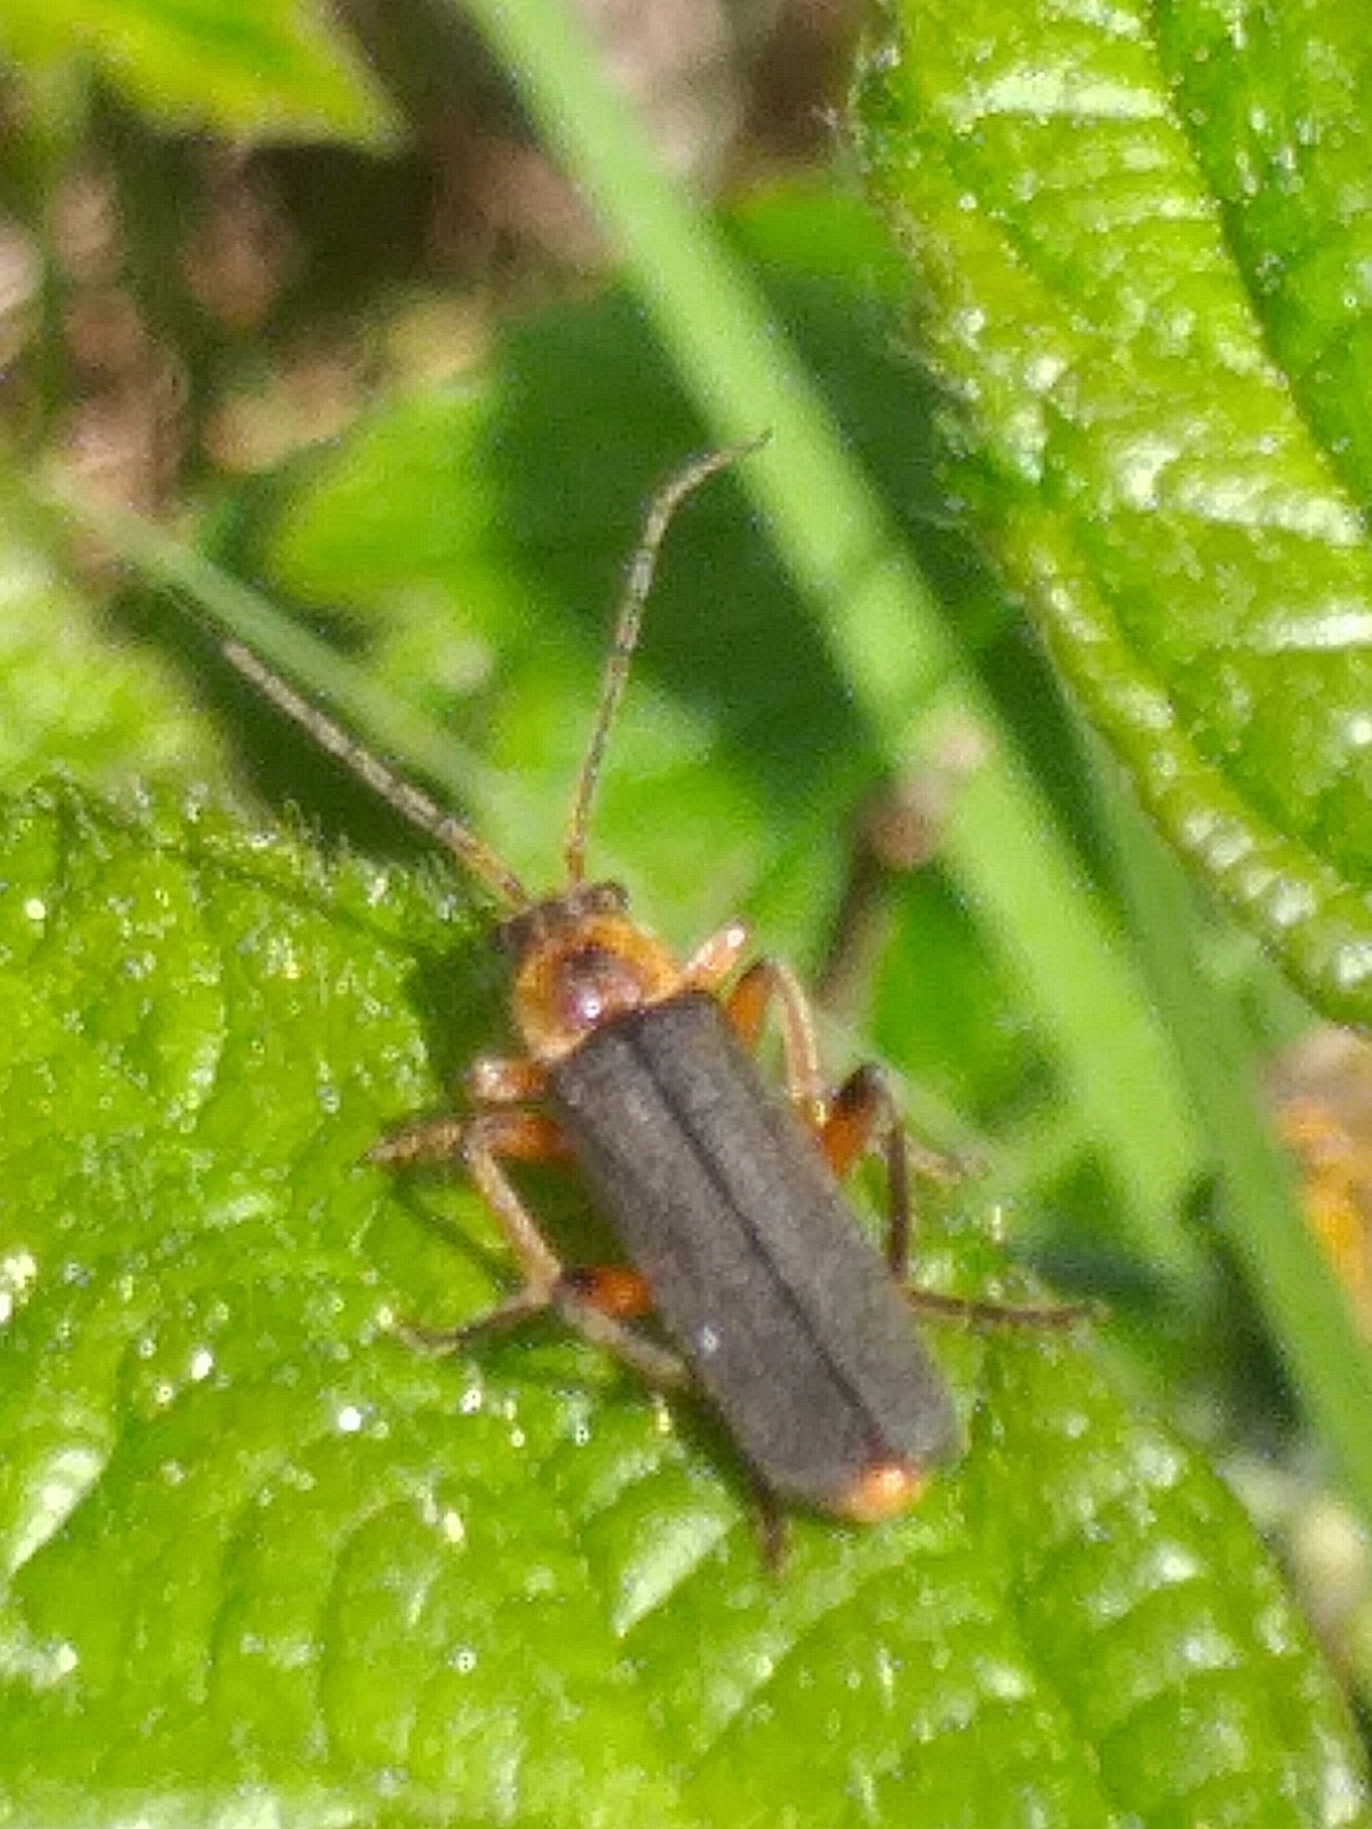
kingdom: Animalia
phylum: Arthropoda
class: Insecta
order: Coleoptera
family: Cantharidae
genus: Cantharis
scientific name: Cantharis nigricans
